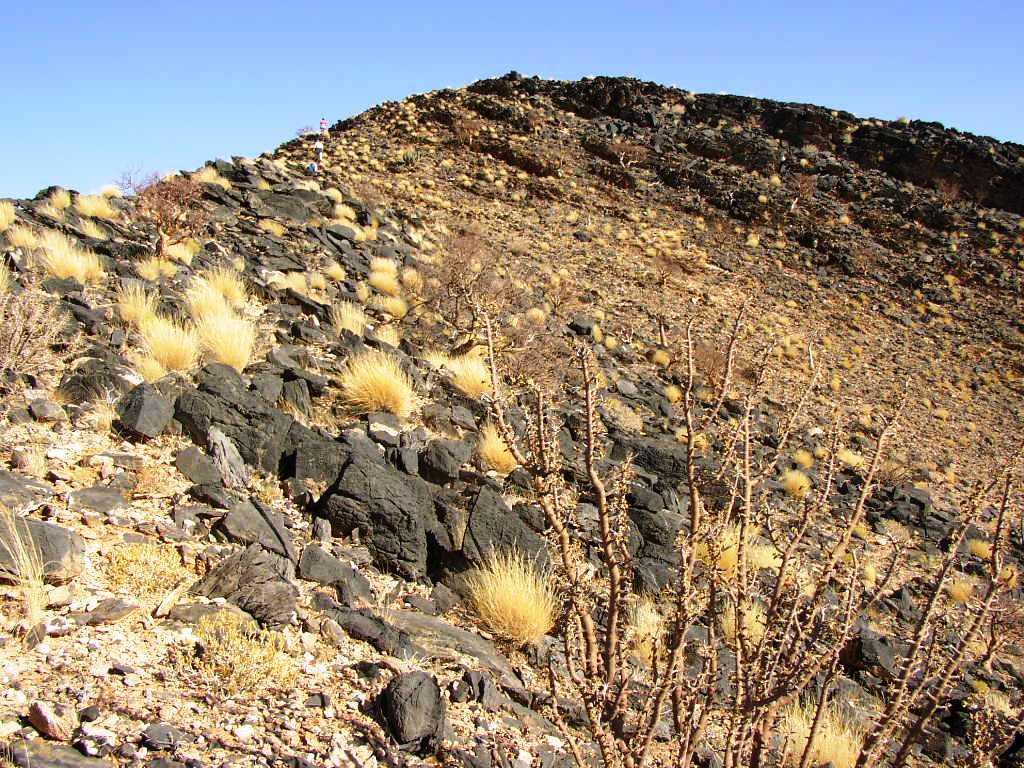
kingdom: Plantae
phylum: Tracheophyta
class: Magnoliopsida
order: Geraniales
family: Geraniaceae
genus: Monsonia
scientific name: Monsonia marlothii
